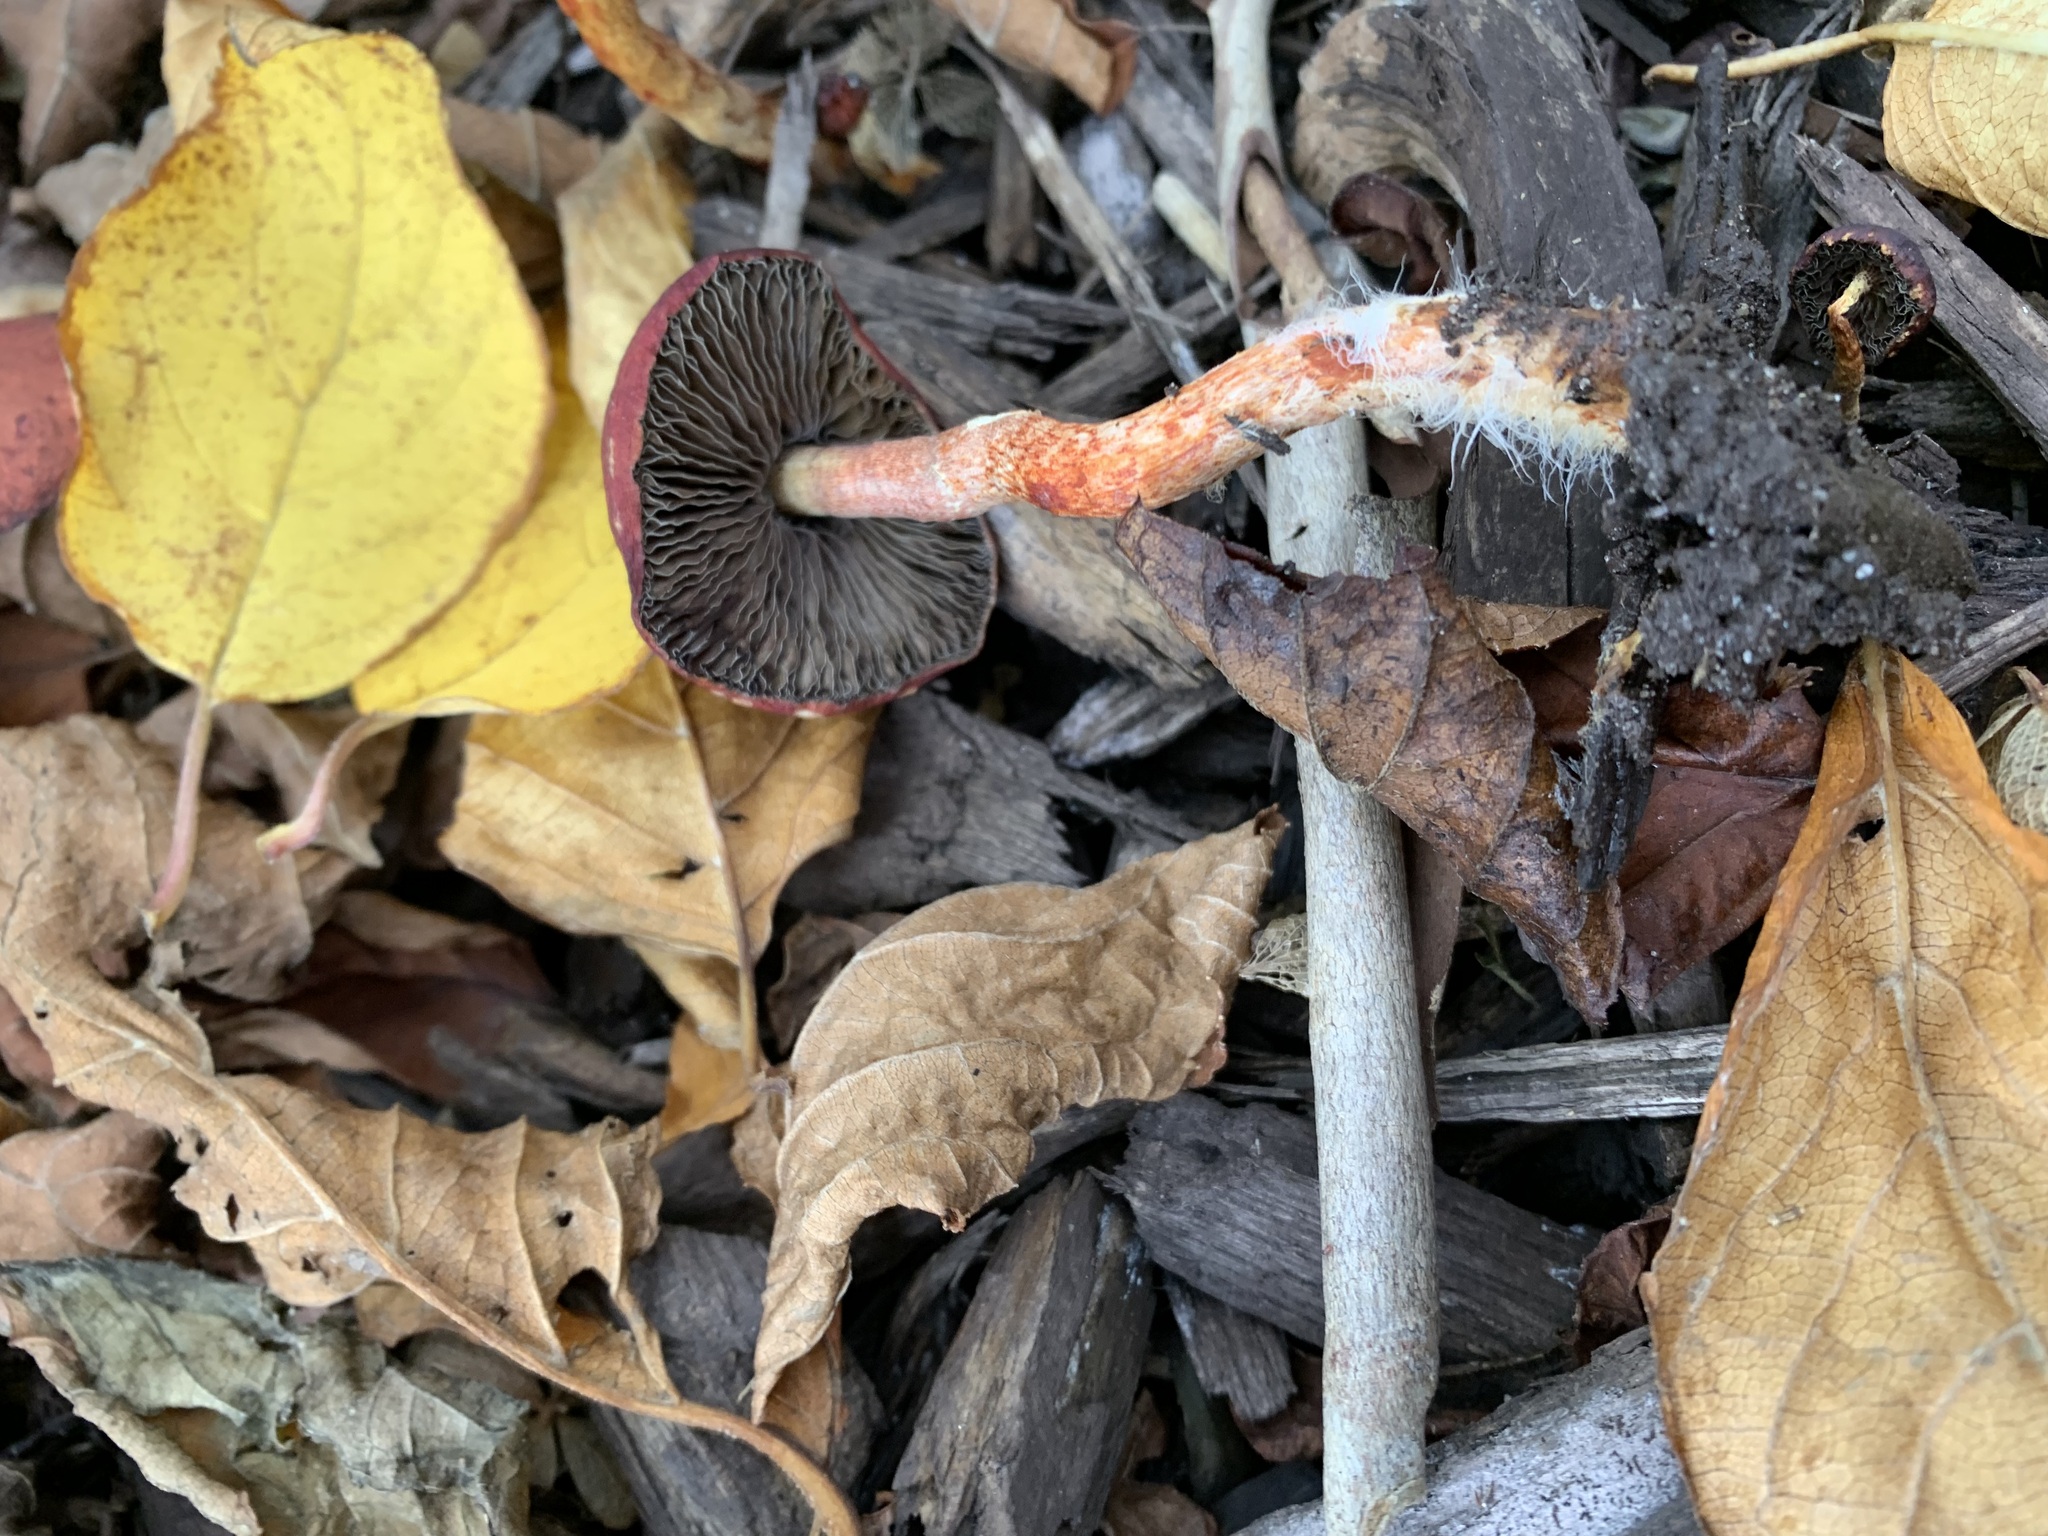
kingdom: Fungi
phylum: Basidiomycota
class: Agaricomycetes
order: Agaricales
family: Strophariaceae
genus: Leratiomyces
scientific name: Leratiomyces ceres
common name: Redlead roundhead
